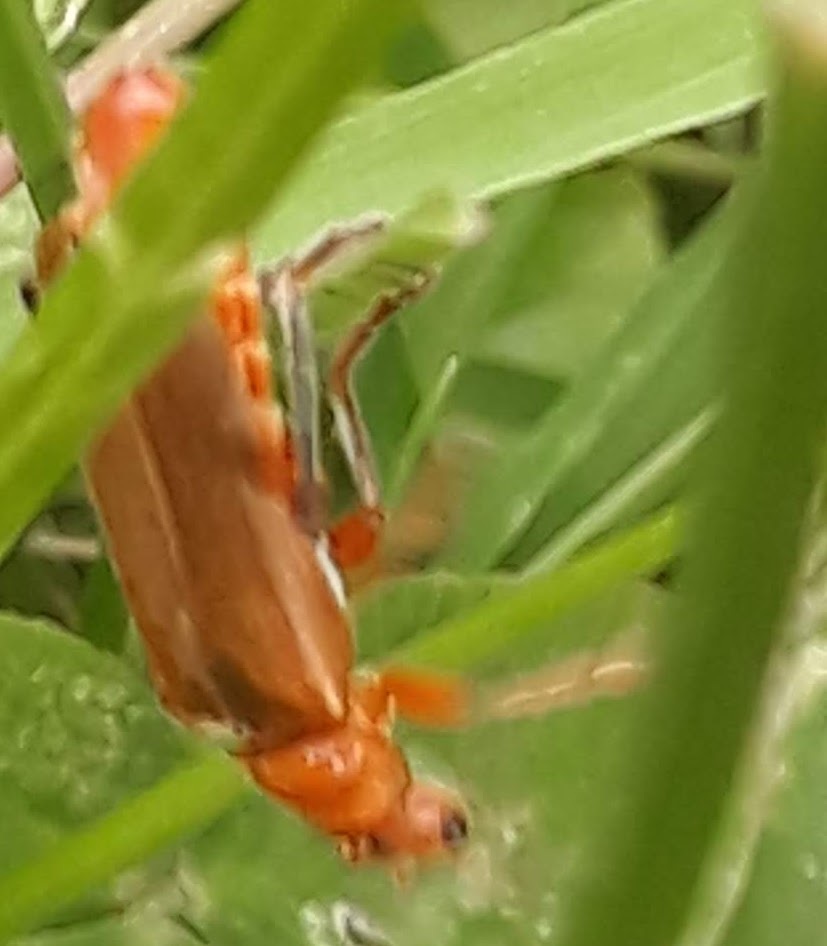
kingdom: Animalia
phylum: Arthropoda
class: Insecta
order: Coleoptera
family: Cantharidae
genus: Cantharis
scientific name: Cantharis livida
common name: Livid soldier beetle
